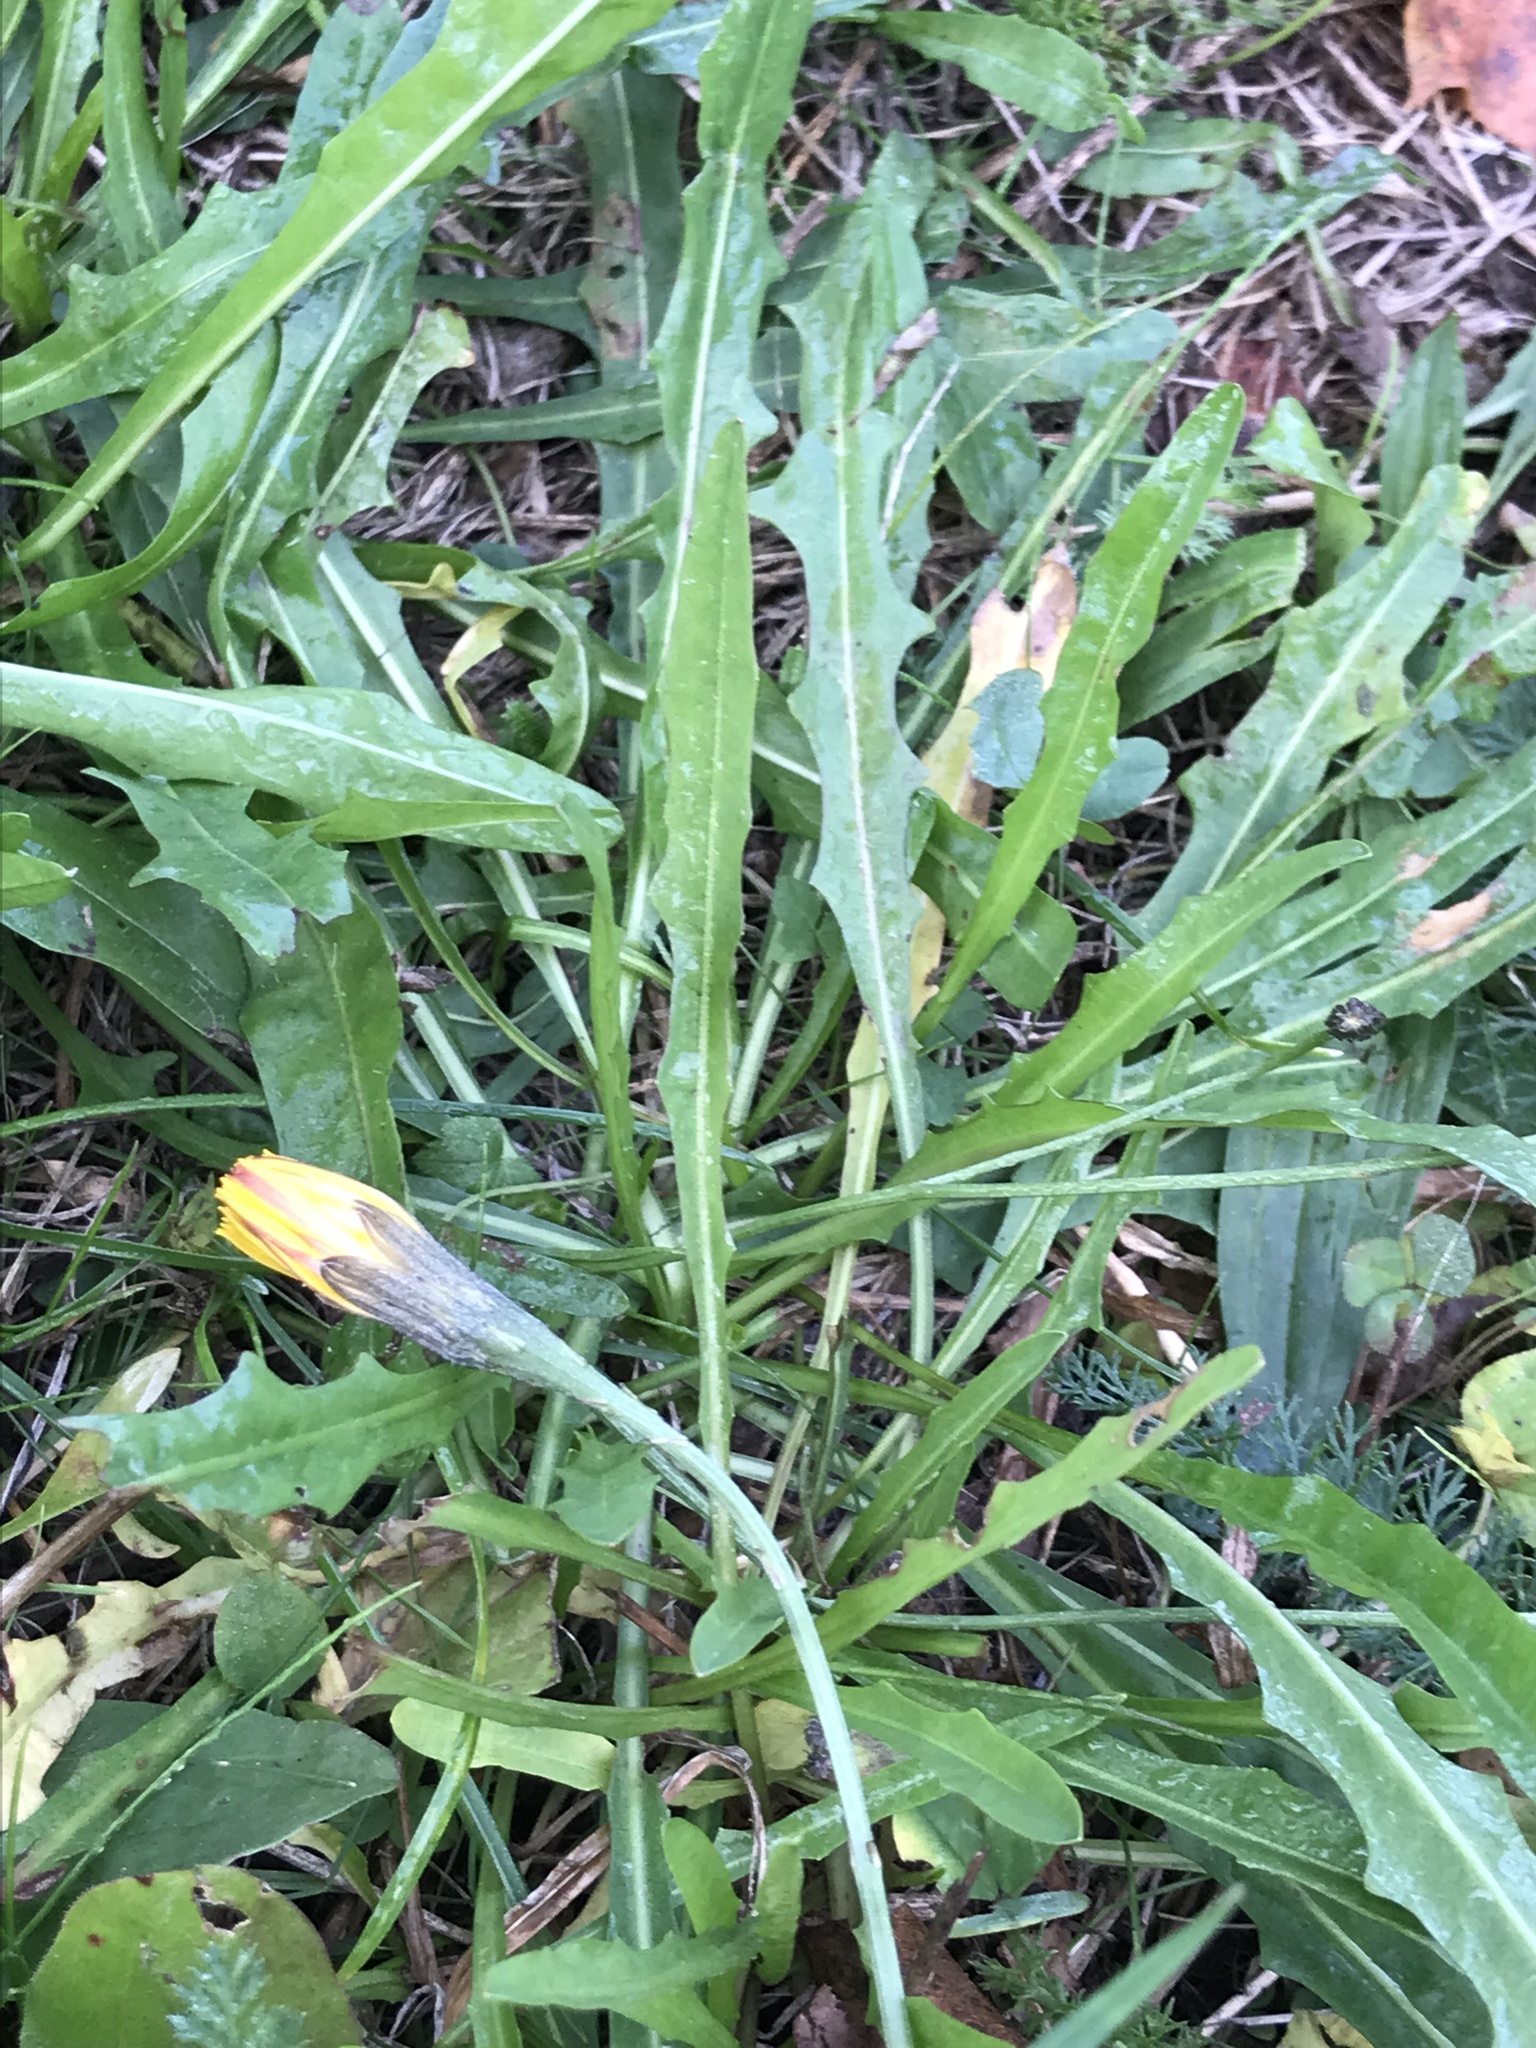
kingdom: Plantae
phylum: Tracheophyta
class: Magnoliopsida
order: Asterales
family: Asteraceae
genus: Scorzoneroides
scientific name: Scorzoneroides autumnalis
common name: Autumn hawkbit
